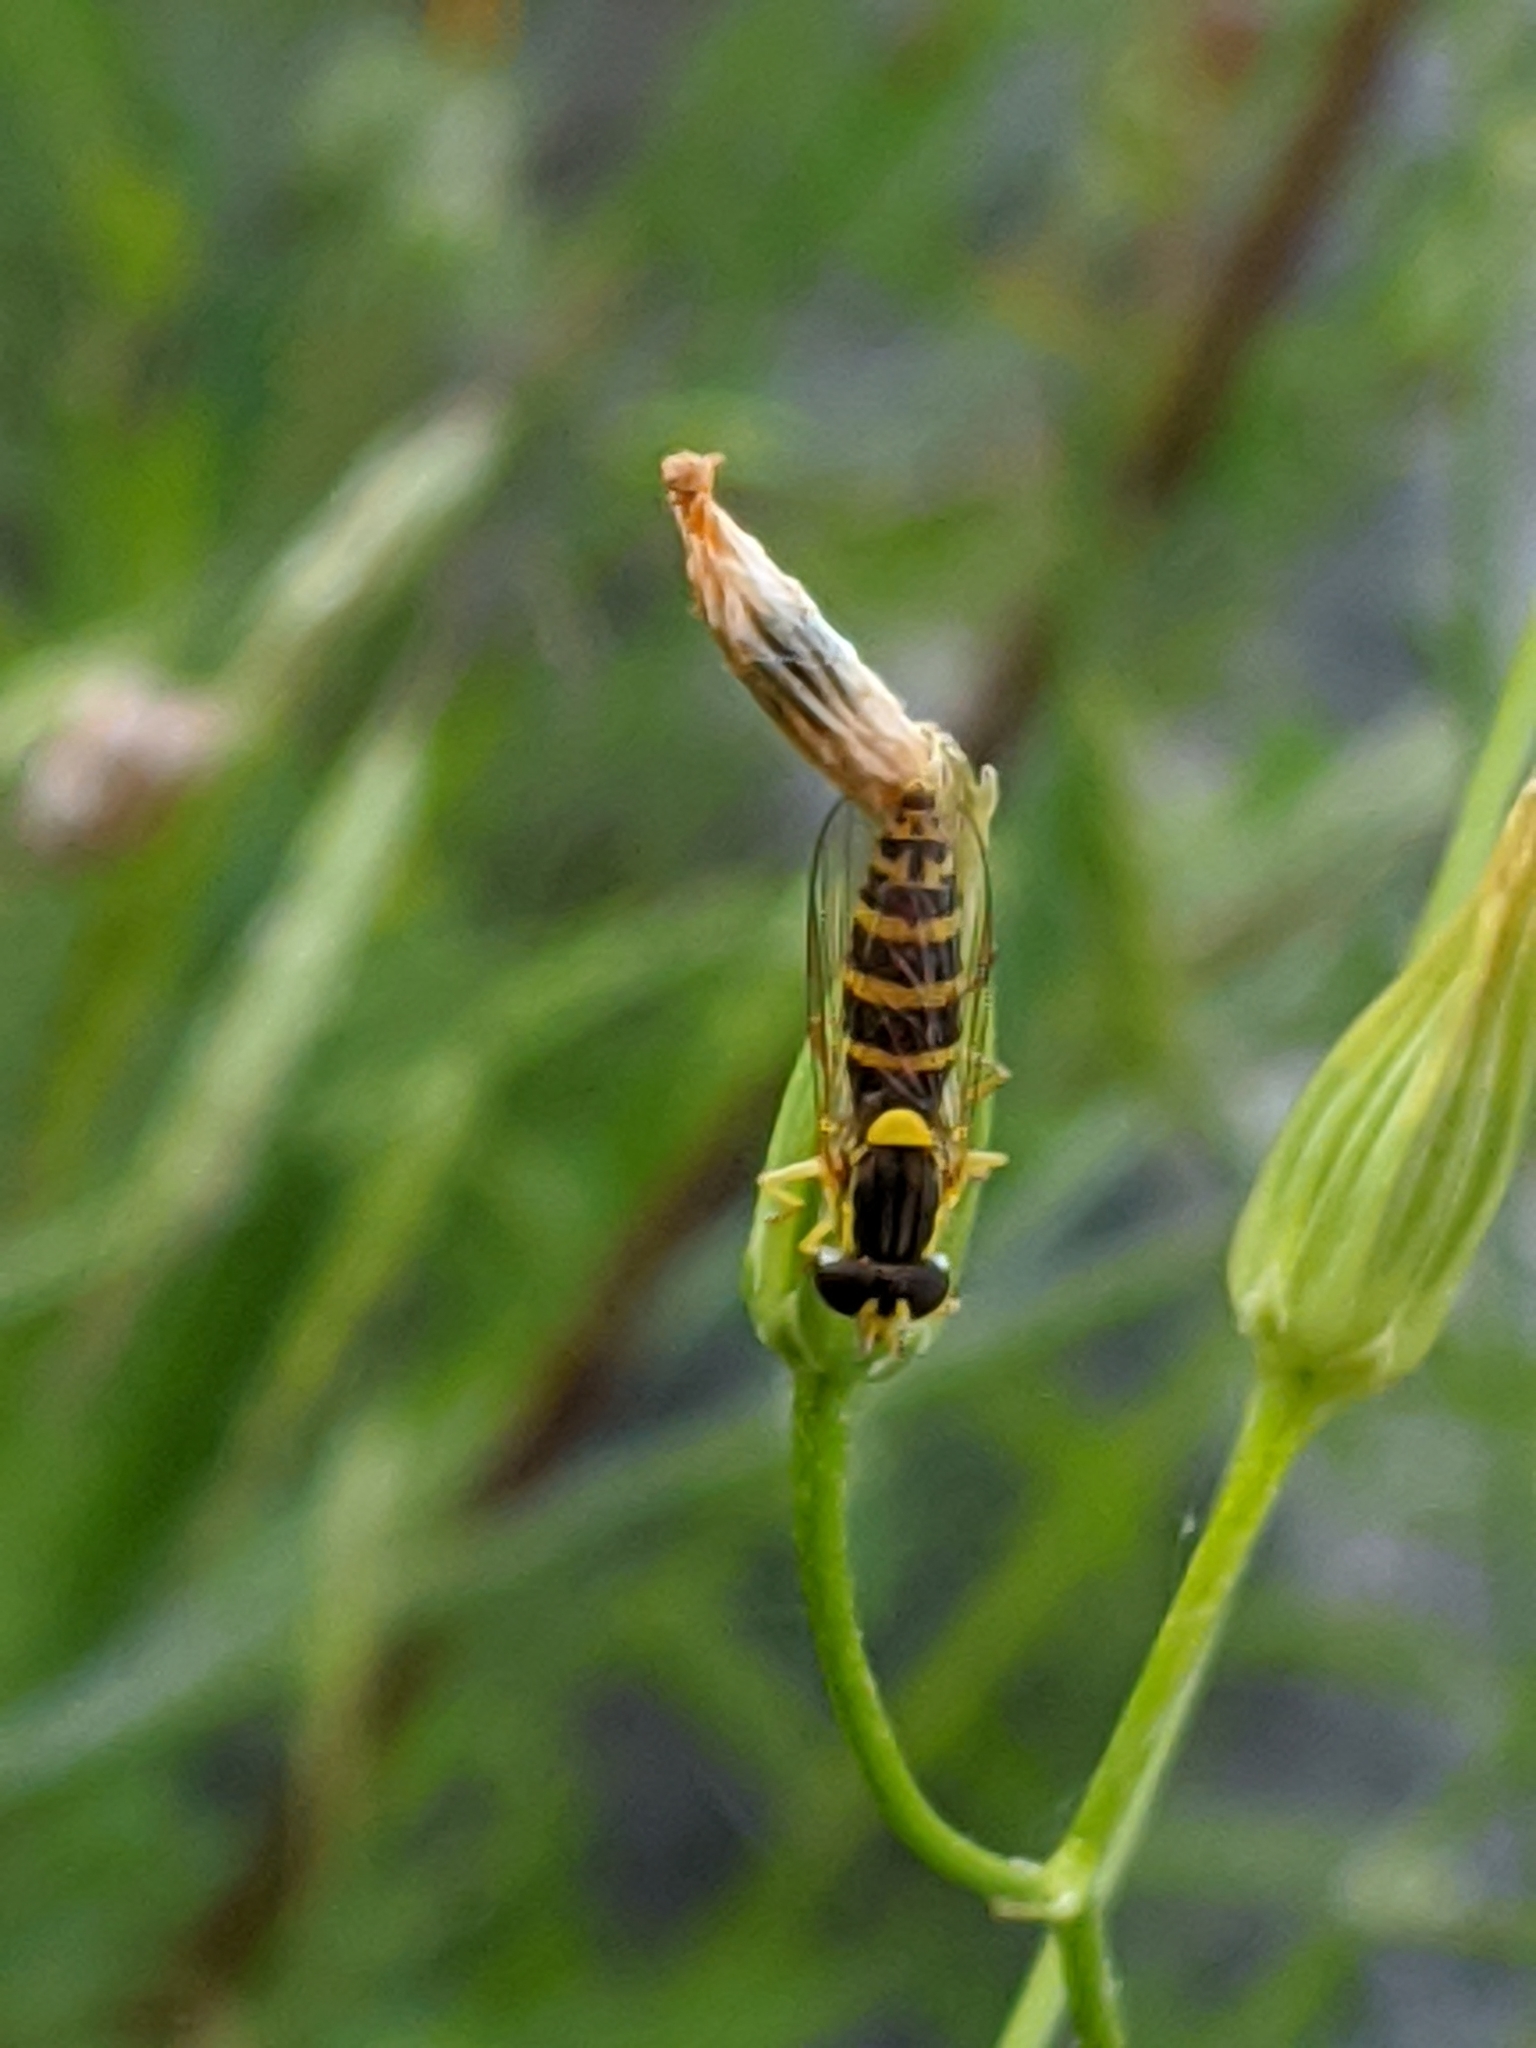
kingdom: Animalia
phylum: Arthropoda
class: Insecta
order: Diptera
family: Syrphidae
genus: Sphaerophoria
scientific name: Sphaerophoria
